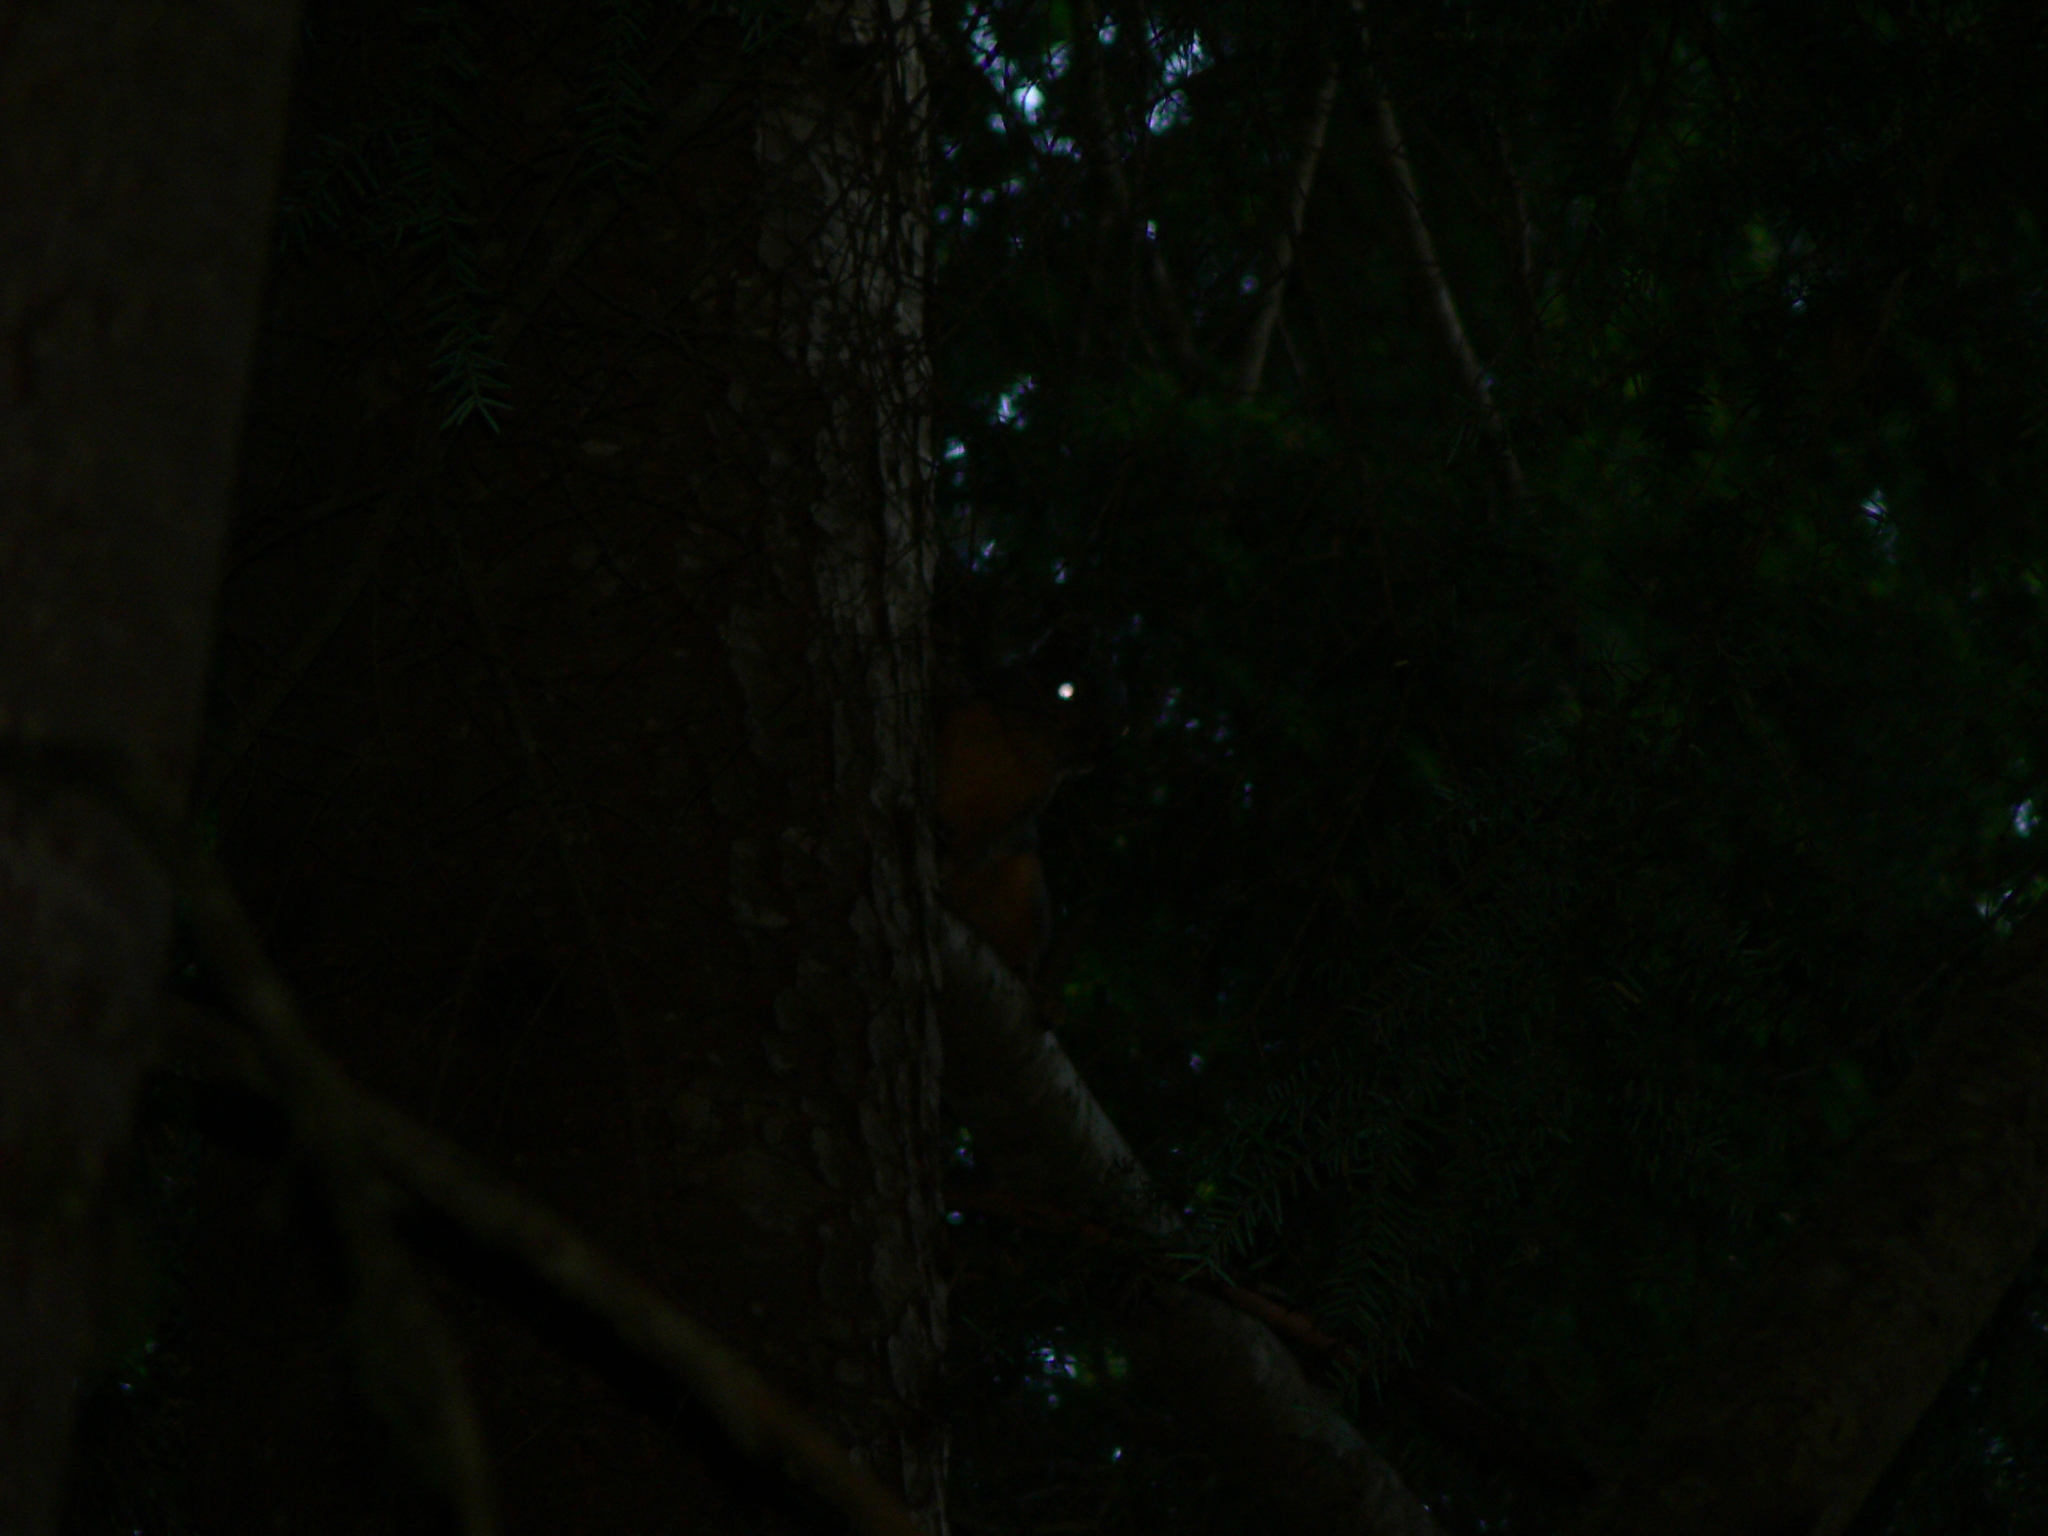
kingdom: Animalia
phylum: Chordata
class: Mammalia
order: Rodentia
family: Sciuridae
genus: Tamiasciurus
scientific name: Tamiasciurus douglasii
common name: Douglas's squirrel
